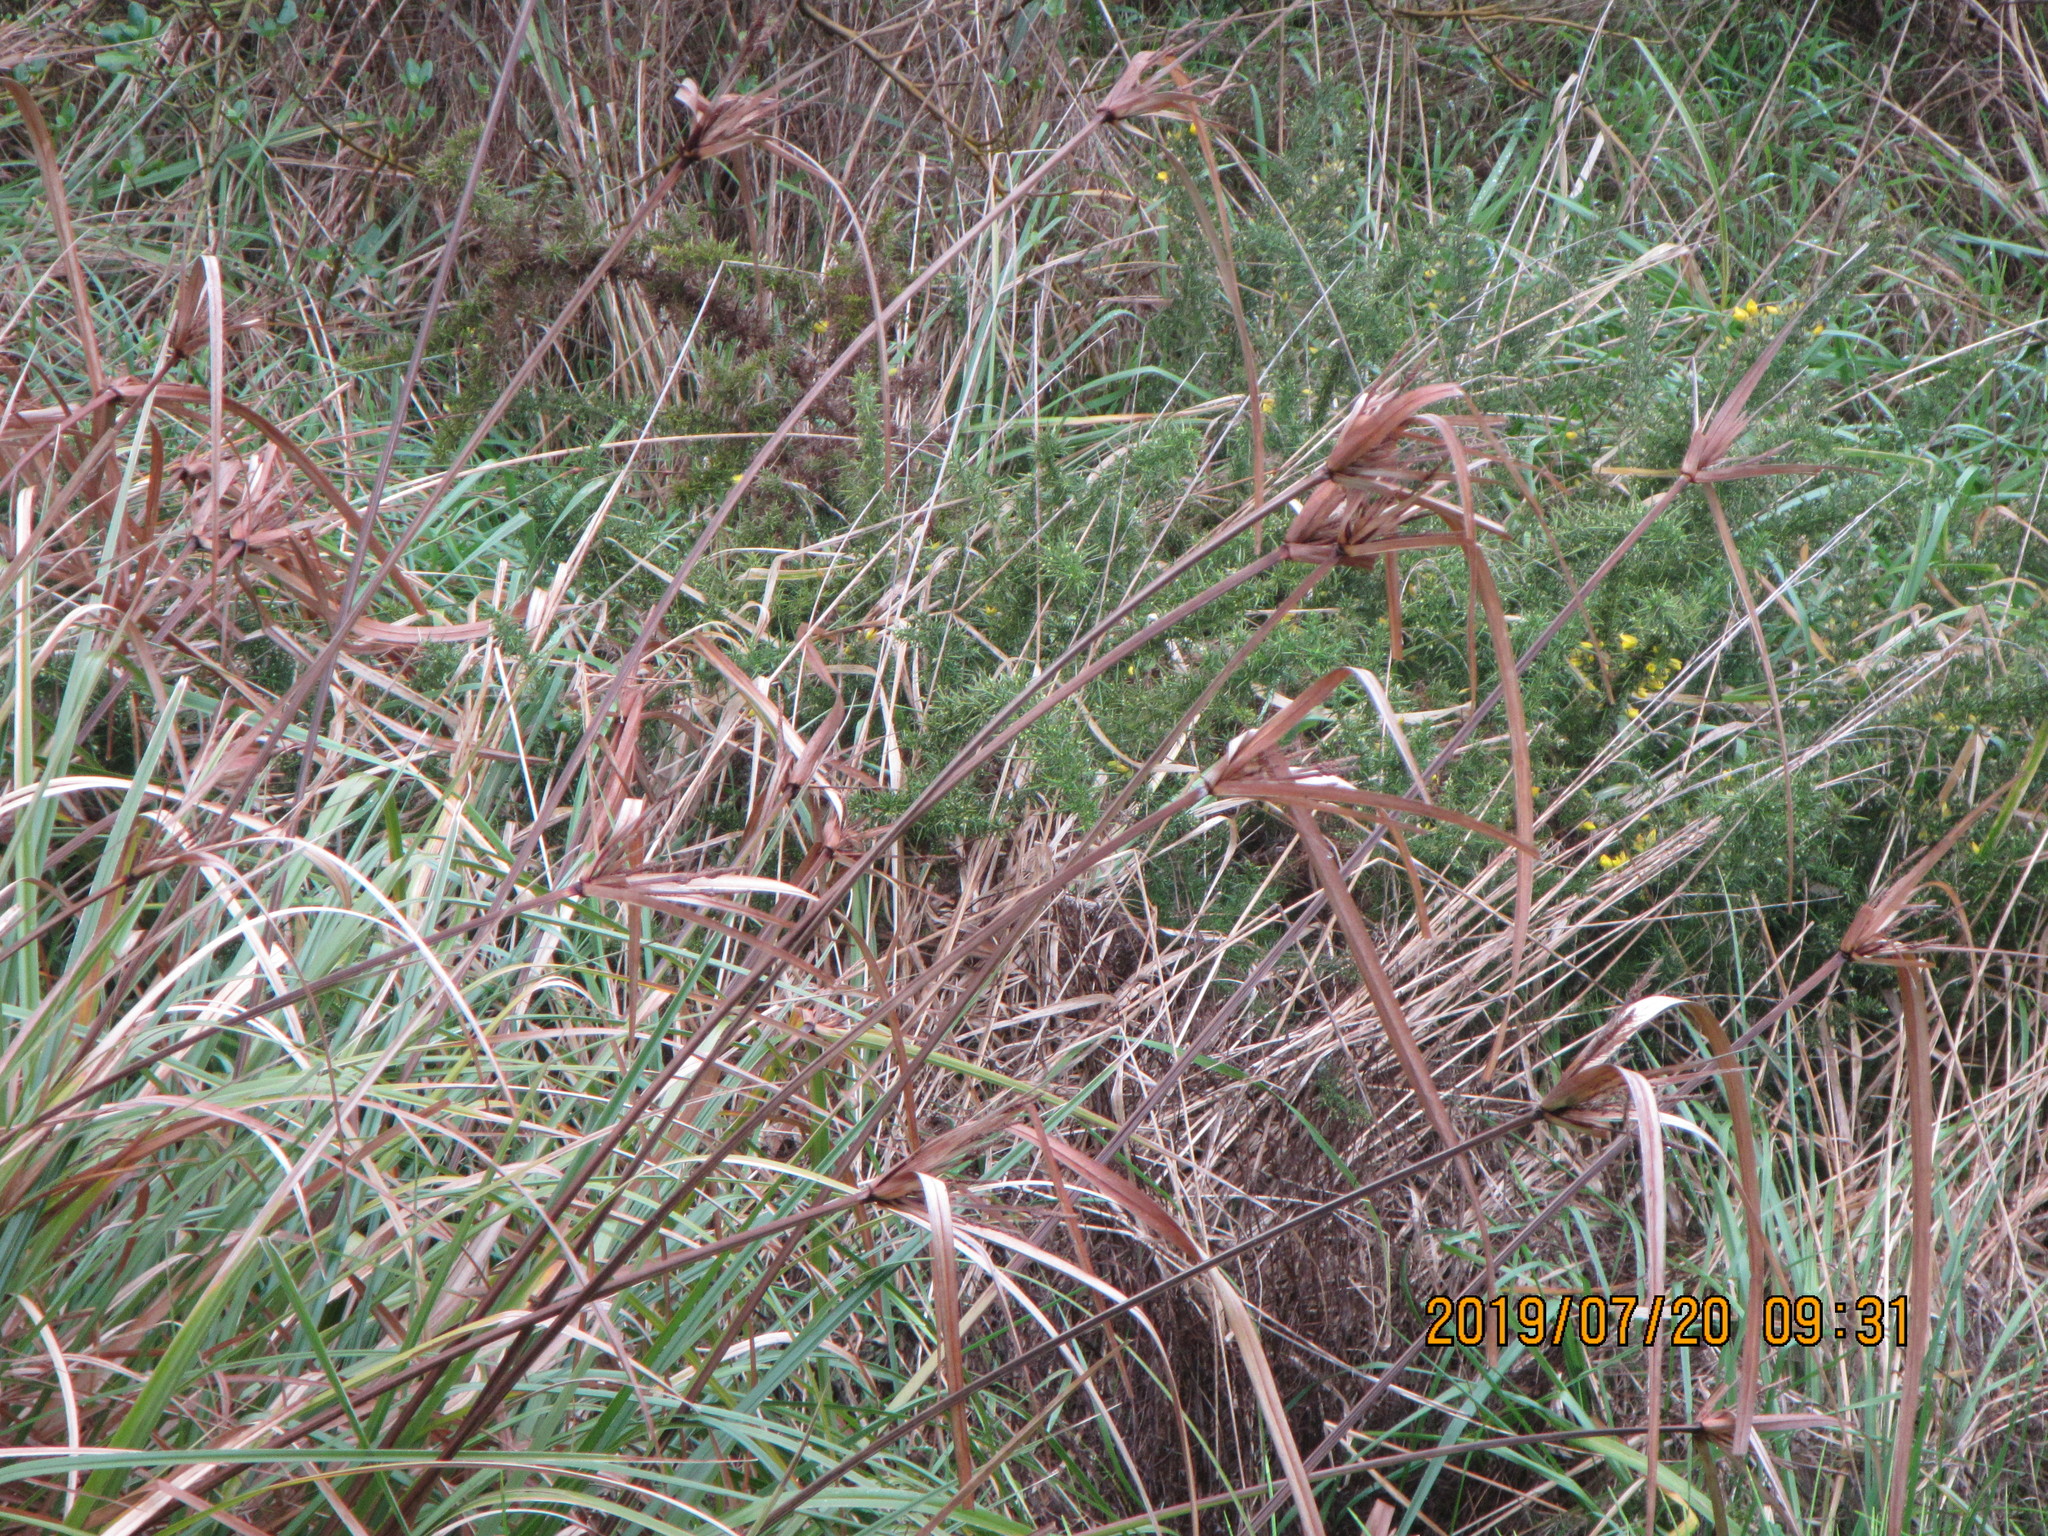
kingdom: Plantae
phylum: Tracheophyta
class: Liliopsida
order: Poales
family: Cyperaceae
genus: Cyperus
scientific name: Cyperus ustulatus
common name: Giant umbrella-sedge
